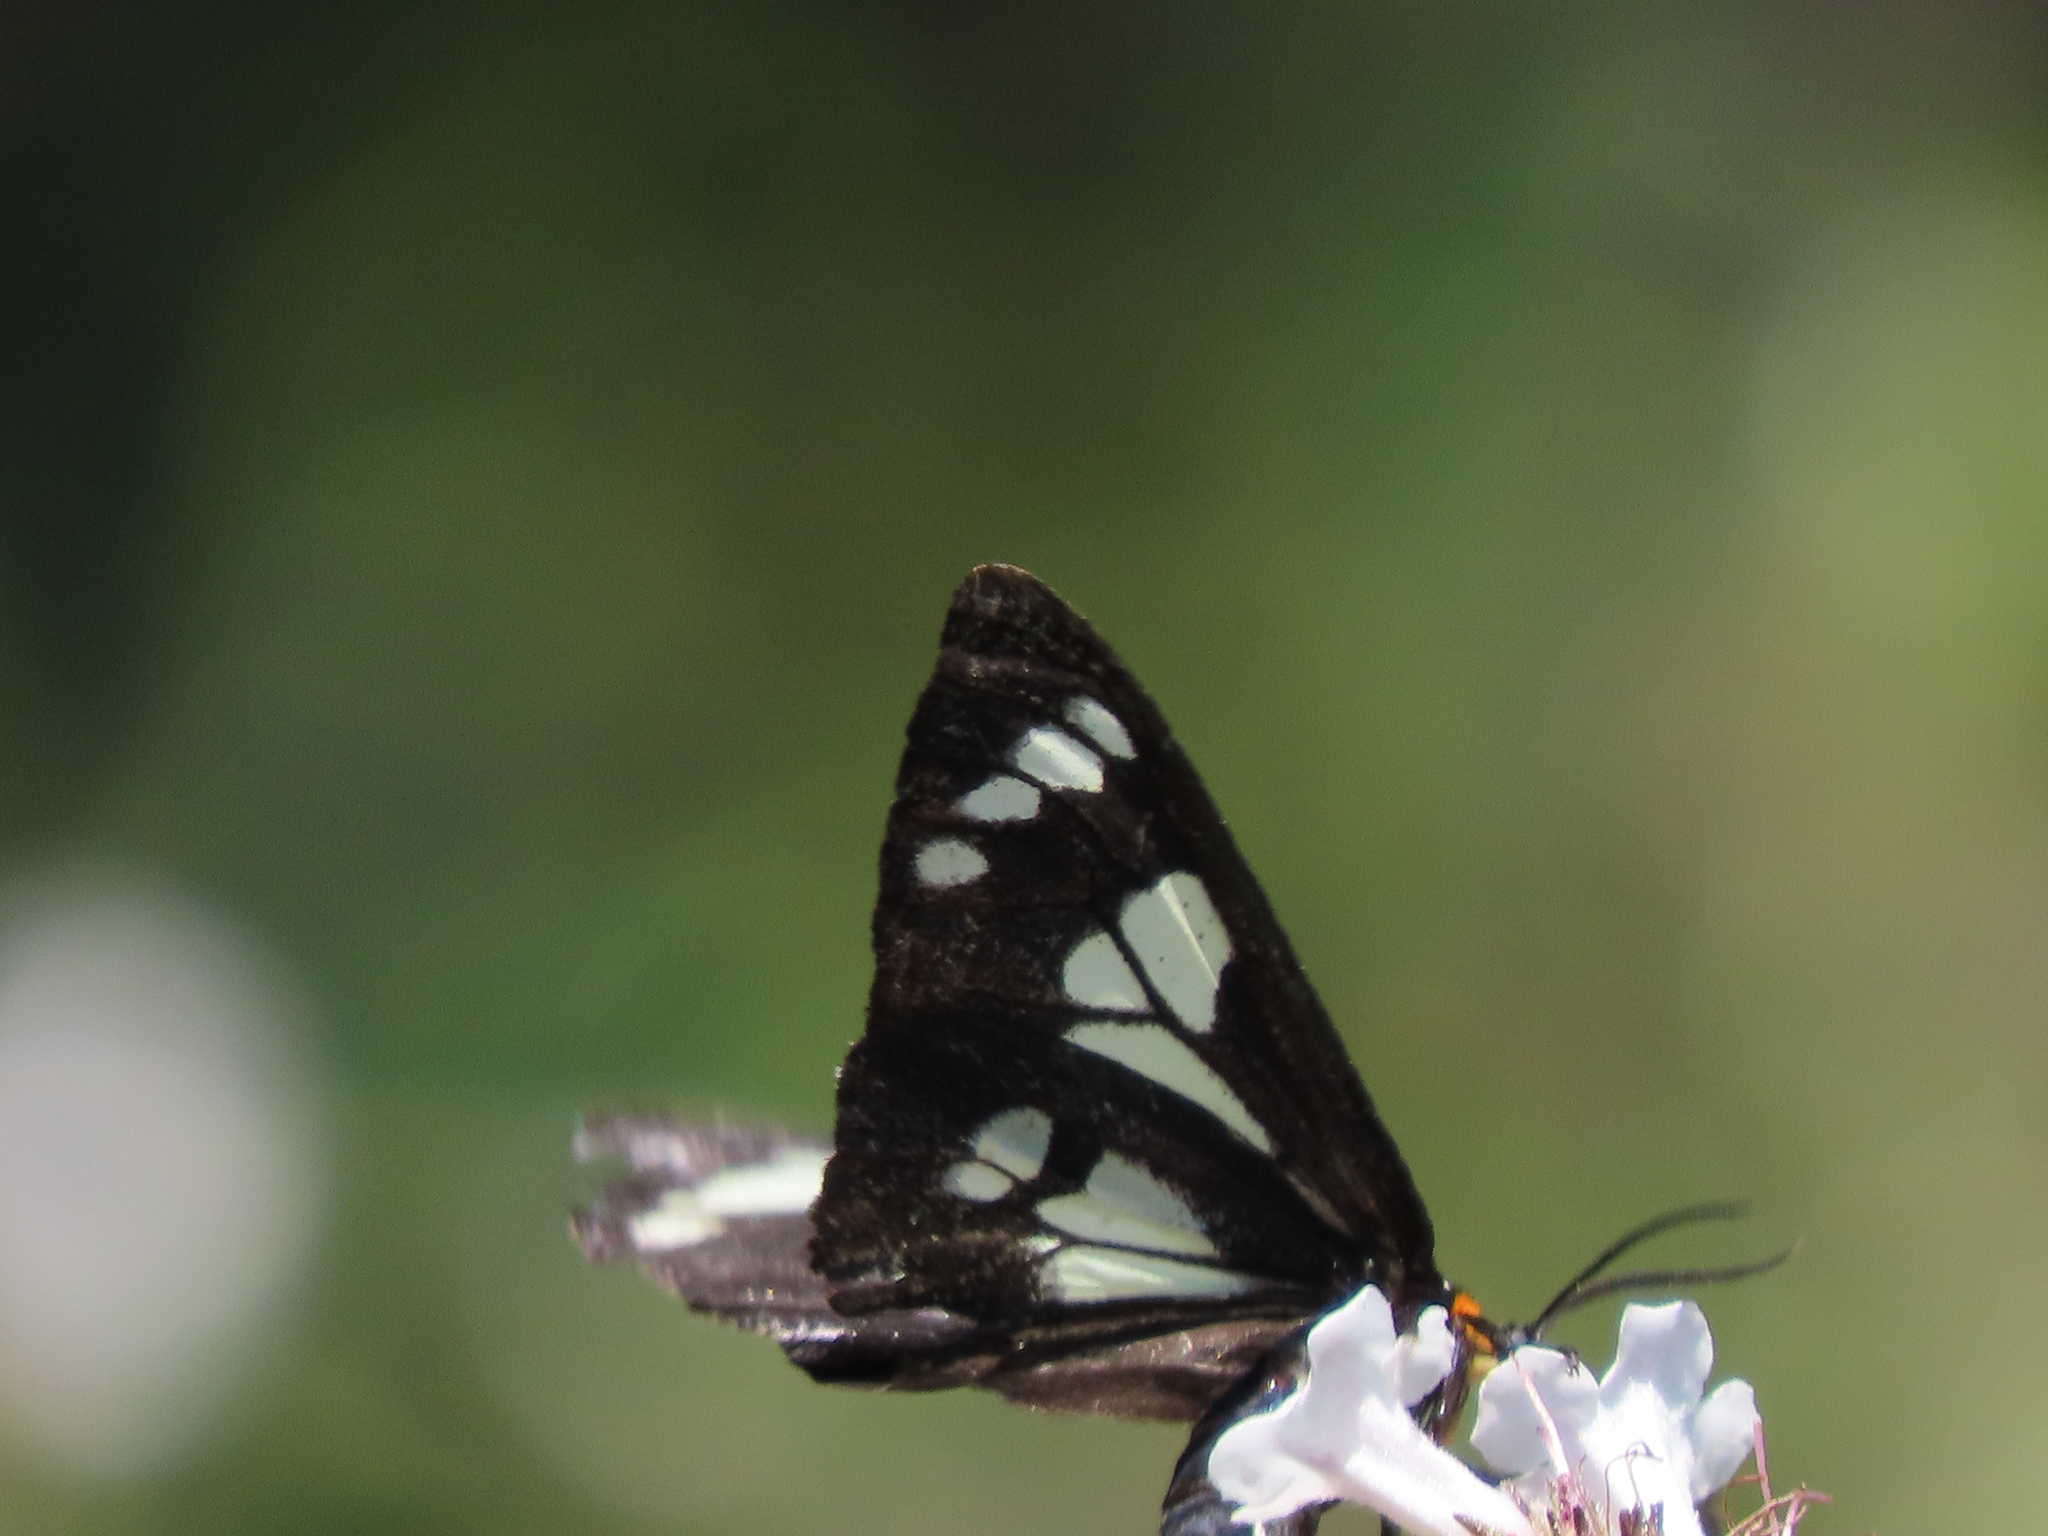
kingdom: Animalia
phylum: Arthropoda
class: Insecta
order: Lepidoptera
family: Erebidae
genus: Gnophaela
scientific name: Gnophaela latipennis
